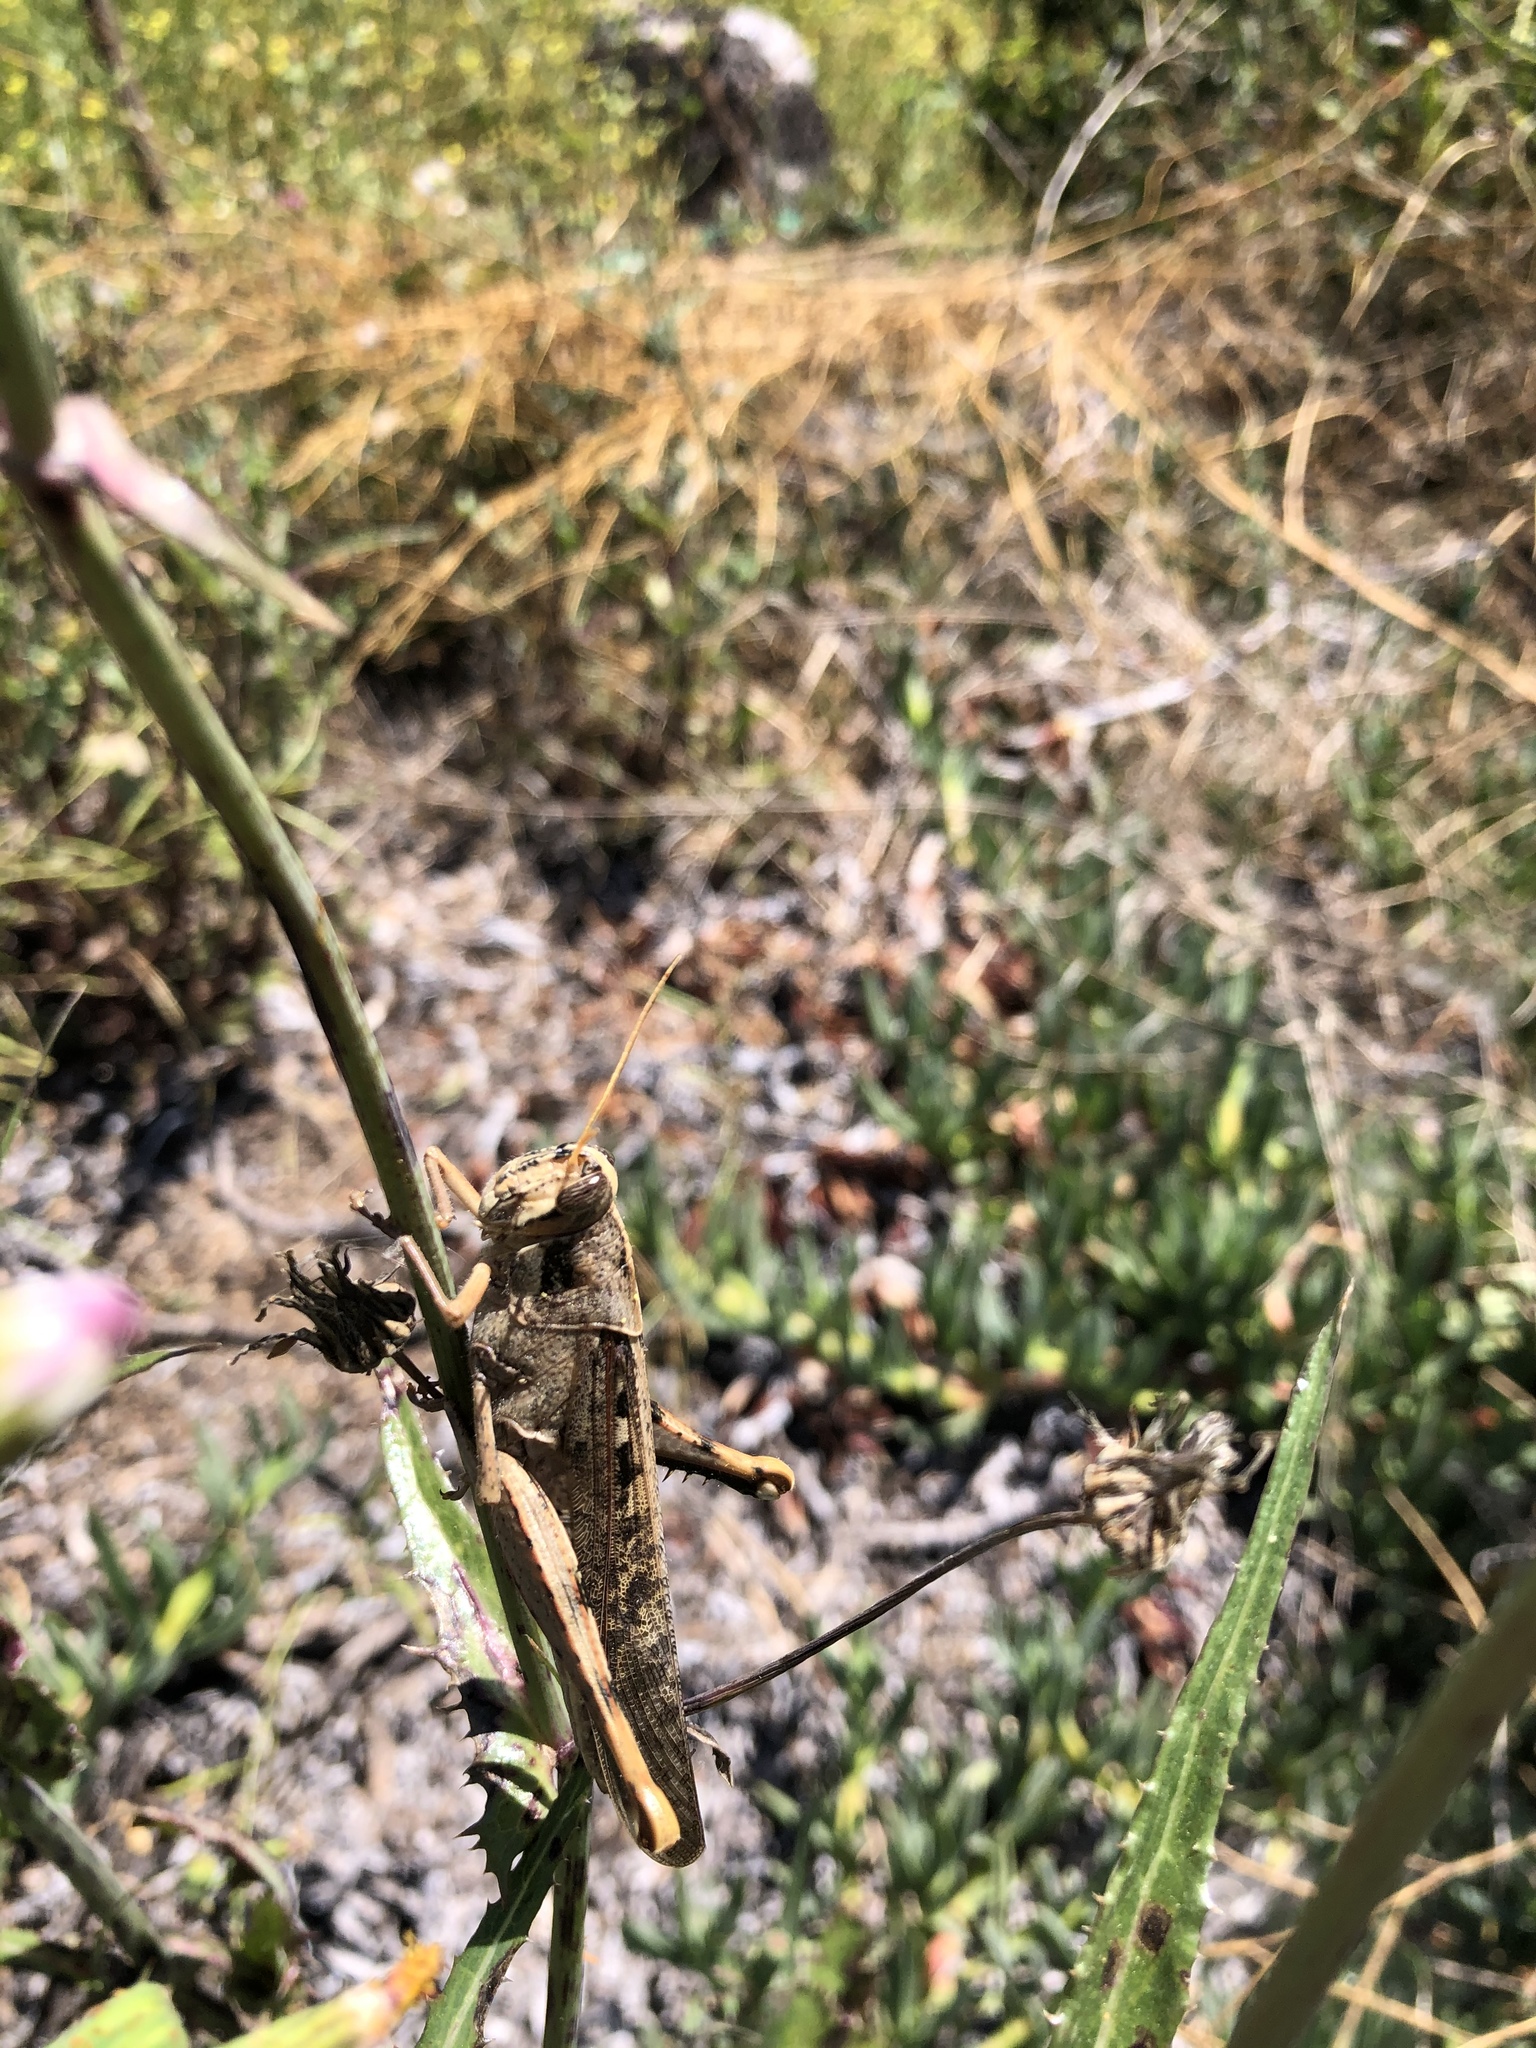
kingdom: Animalia
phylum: Arthropoda
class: Insecta
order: Orthoptera
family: Acrididae
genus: Schistocerca
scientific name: Schistocerca nitens
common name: Vagrant grasshopper
